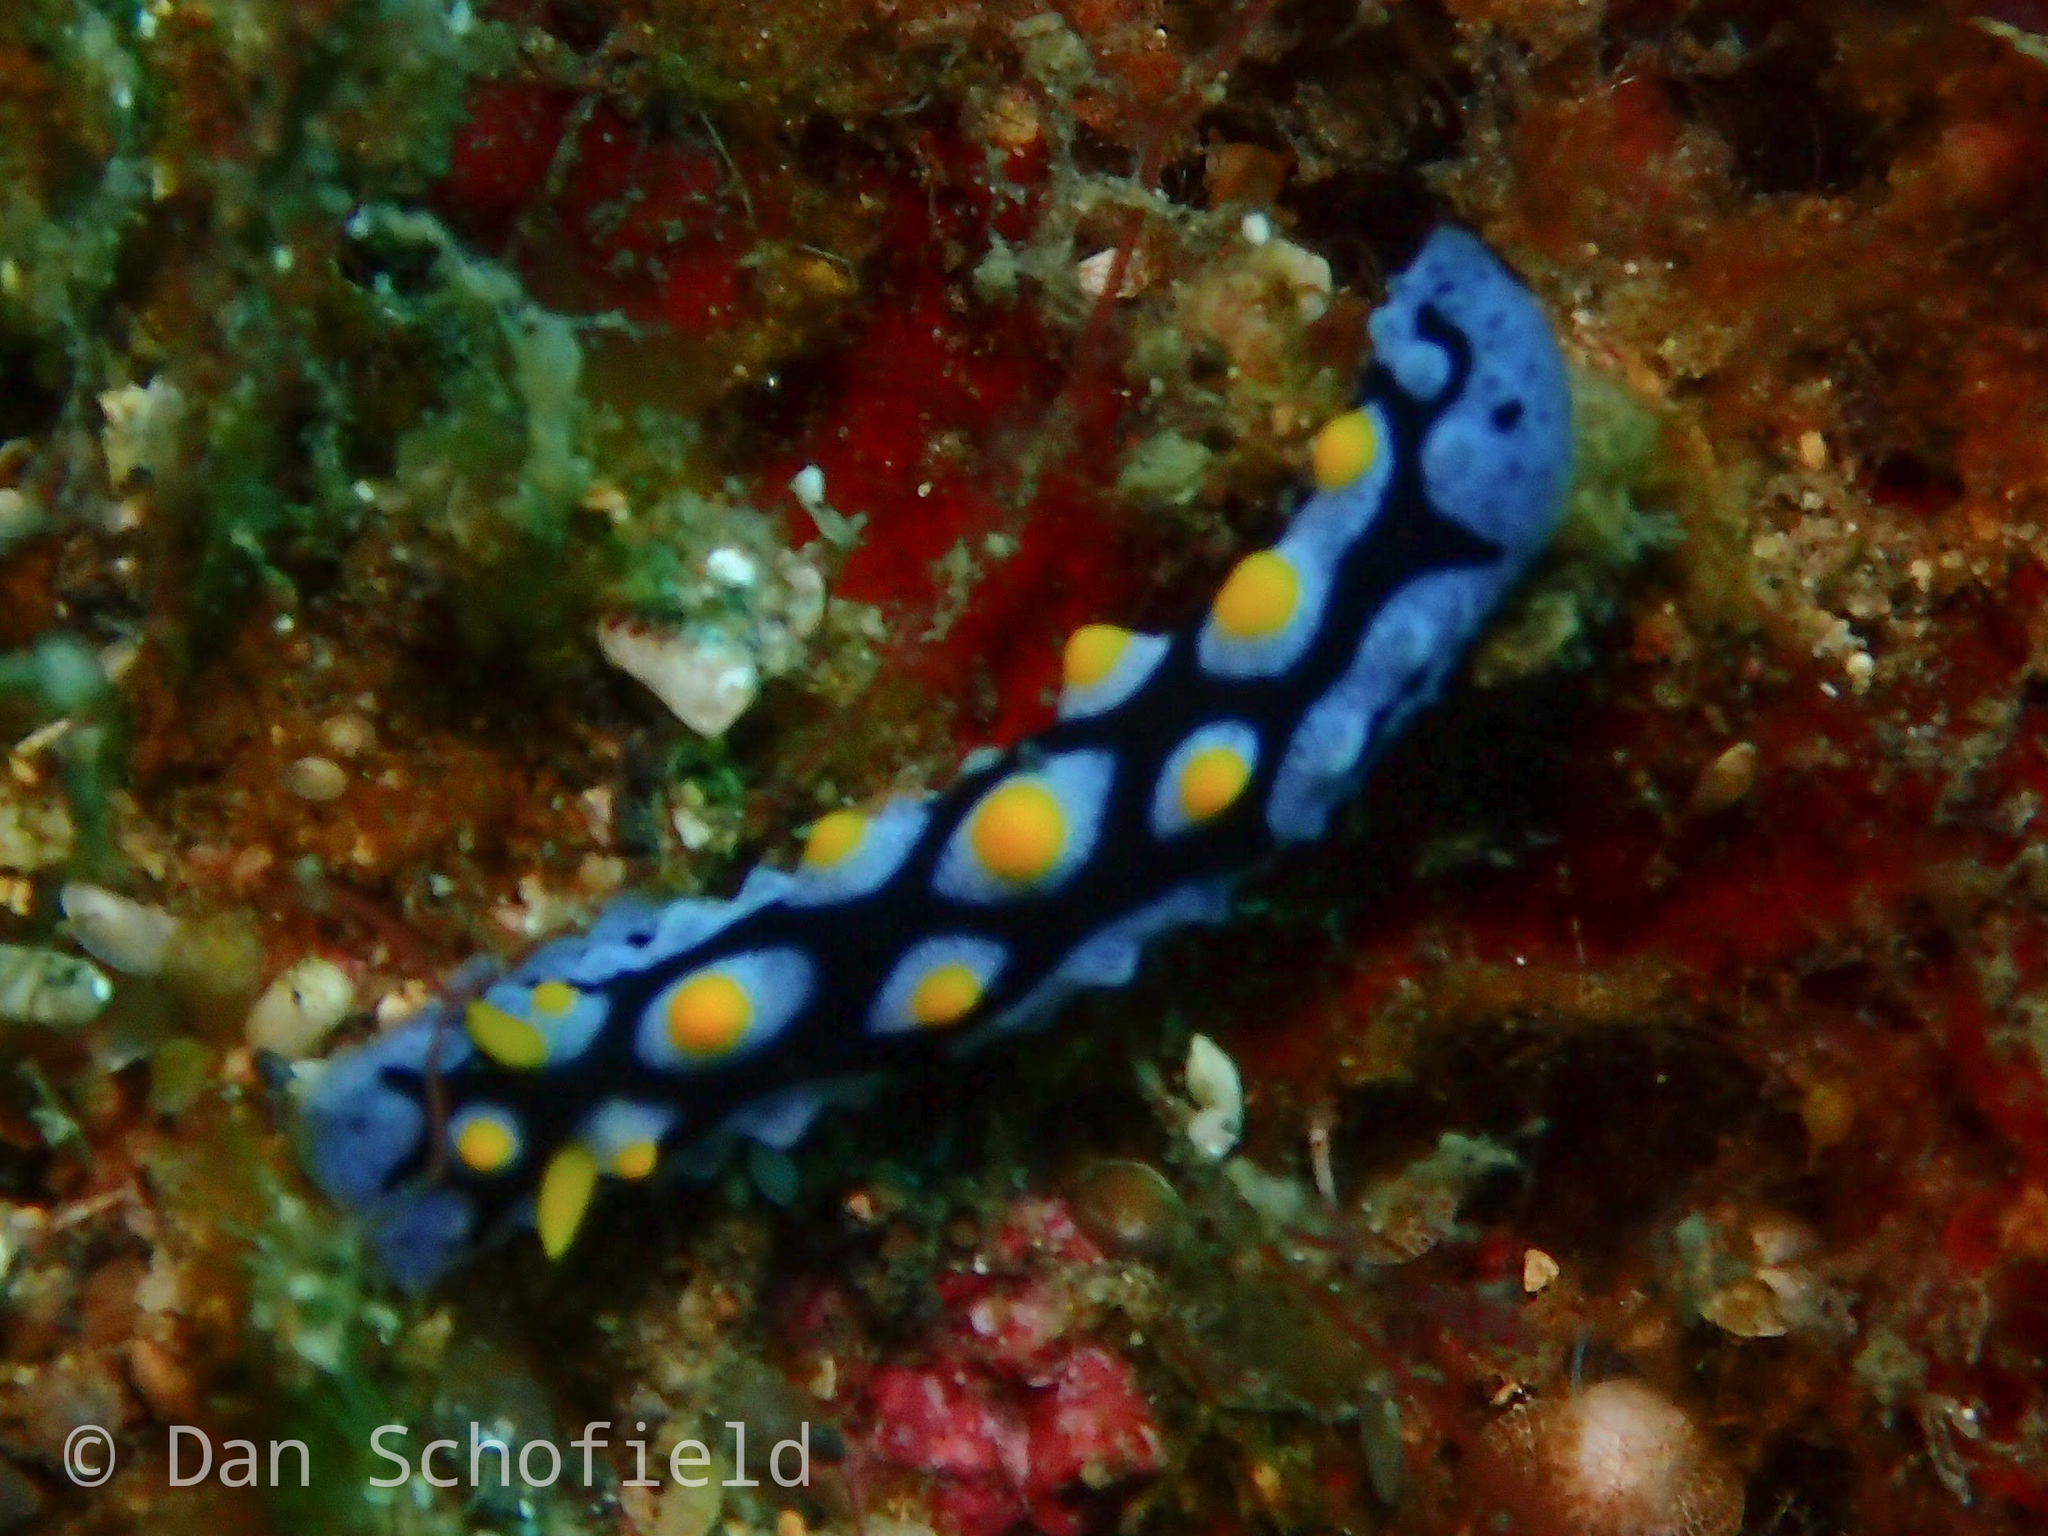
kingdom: Animalia
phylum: Mollusca
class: Gastropoda
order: Nudibranchia
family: Phyllidiidae
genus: Phyllidia
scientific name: Phyllidia picta
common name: Black-rayed phyllidia
